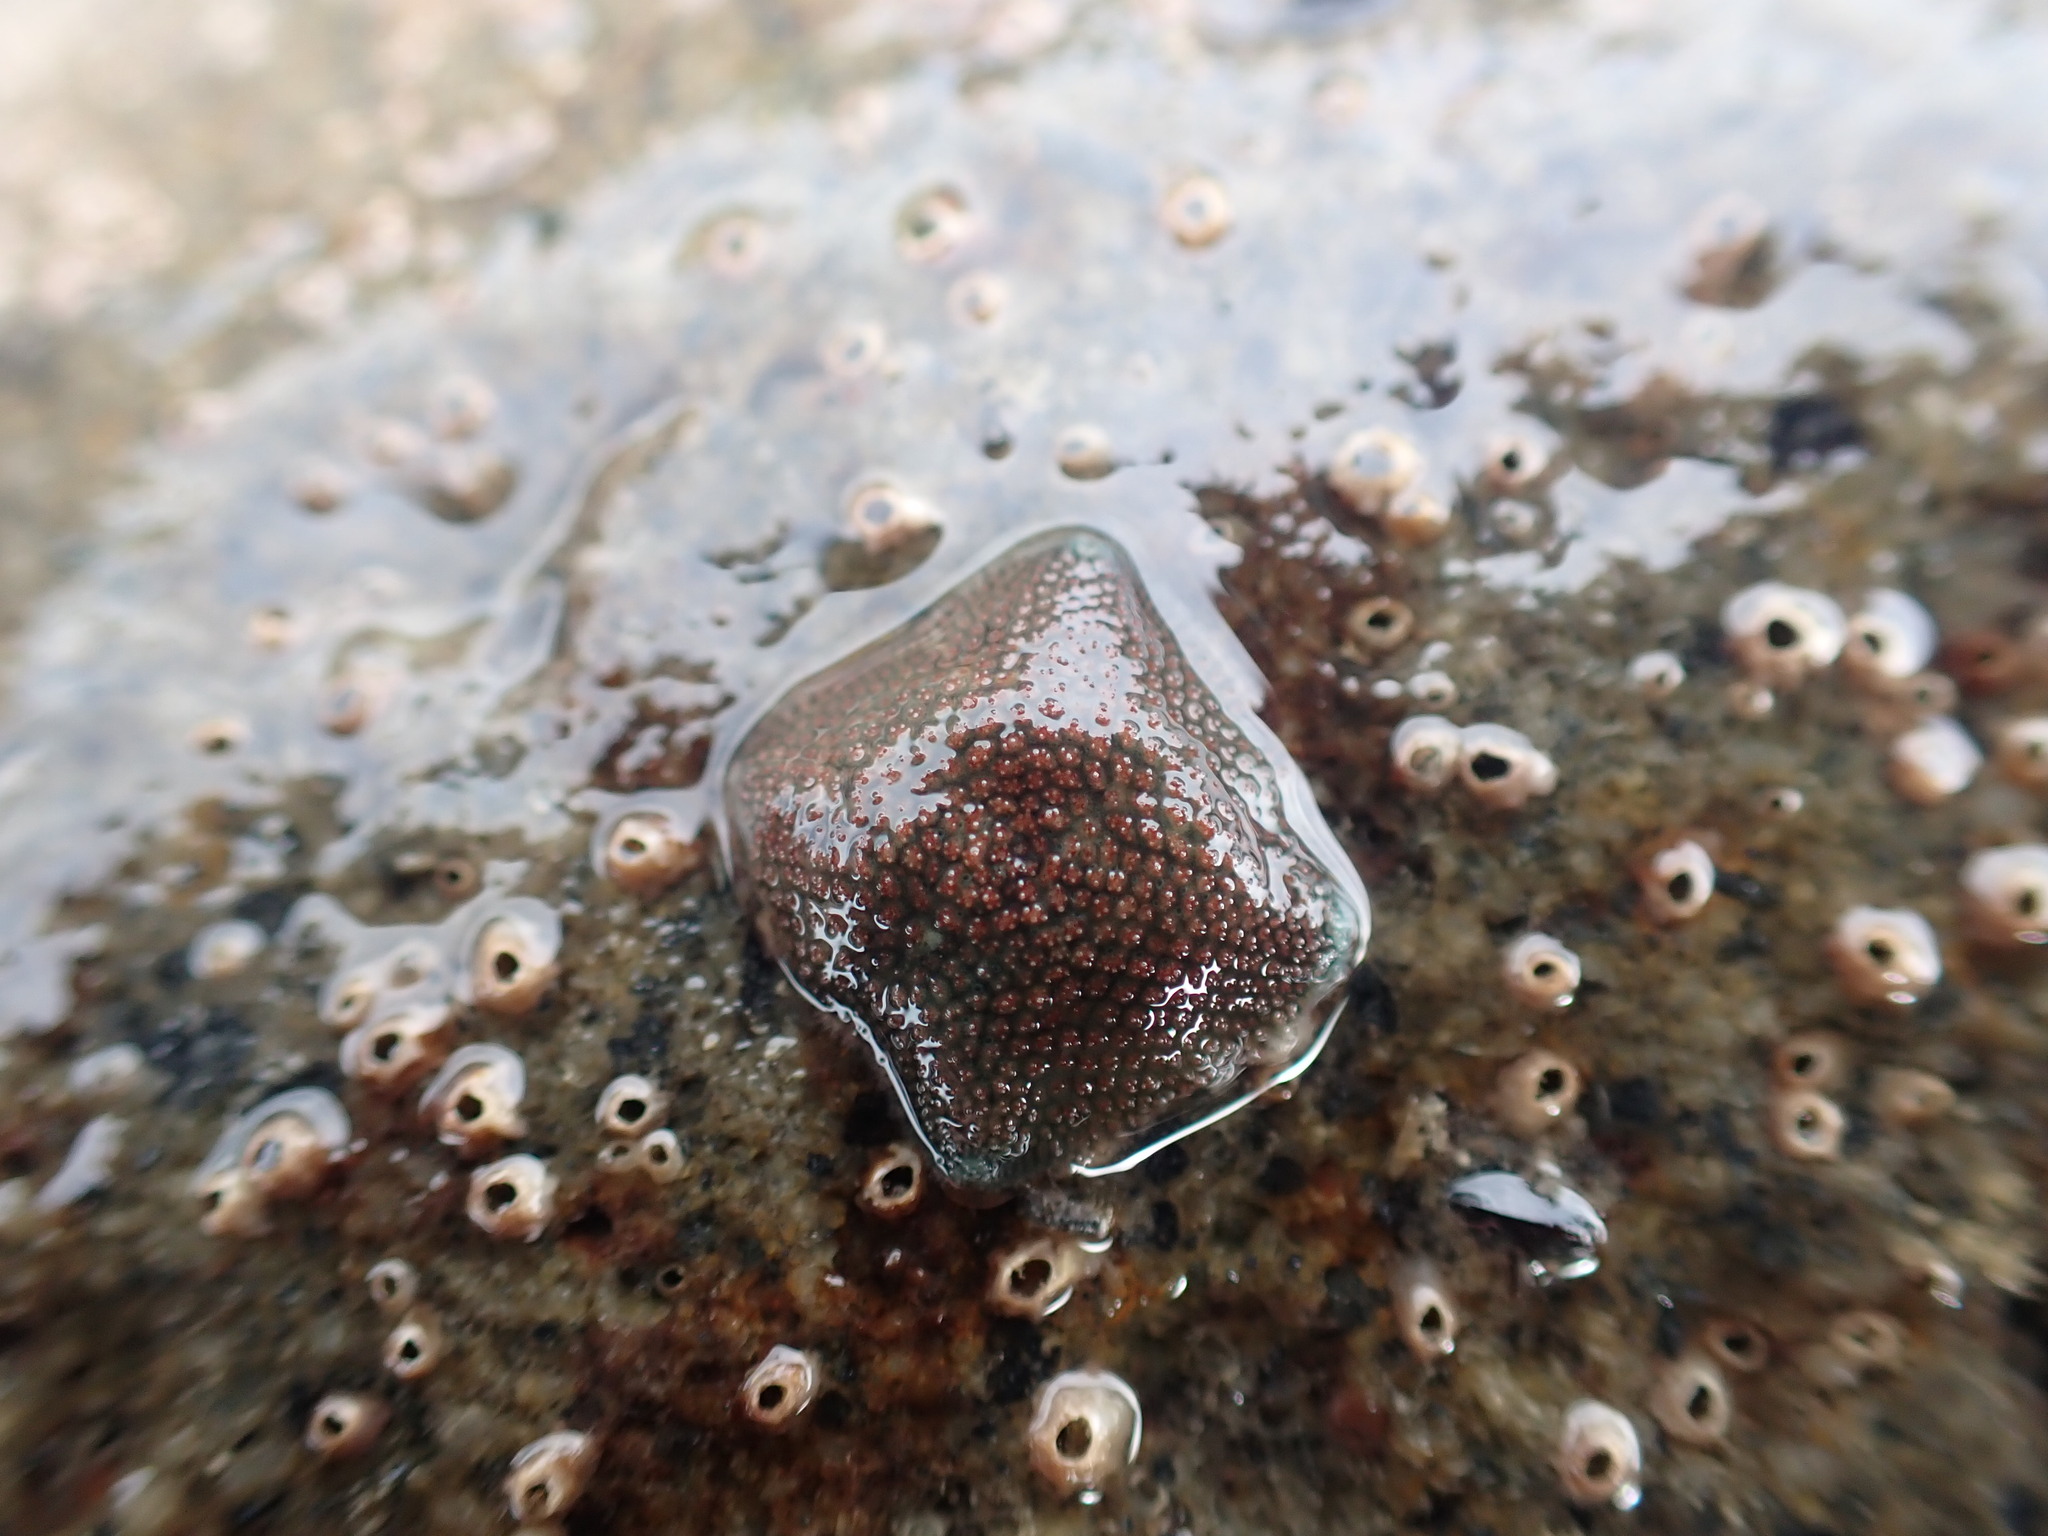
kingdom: Animalia
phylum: Echinodermata
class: Asteroidea
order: Valvatida
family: Asterinidae
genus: Patiriella
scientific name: Patiriella regularis
